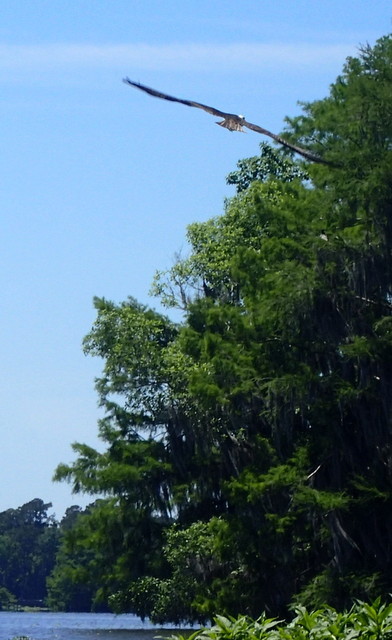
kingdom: Animalia
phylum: Chordata
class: Aves
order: Accipitriformes
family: Pandionidae
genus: Pandion
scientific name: Pandion haliaetus
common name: Osprey
